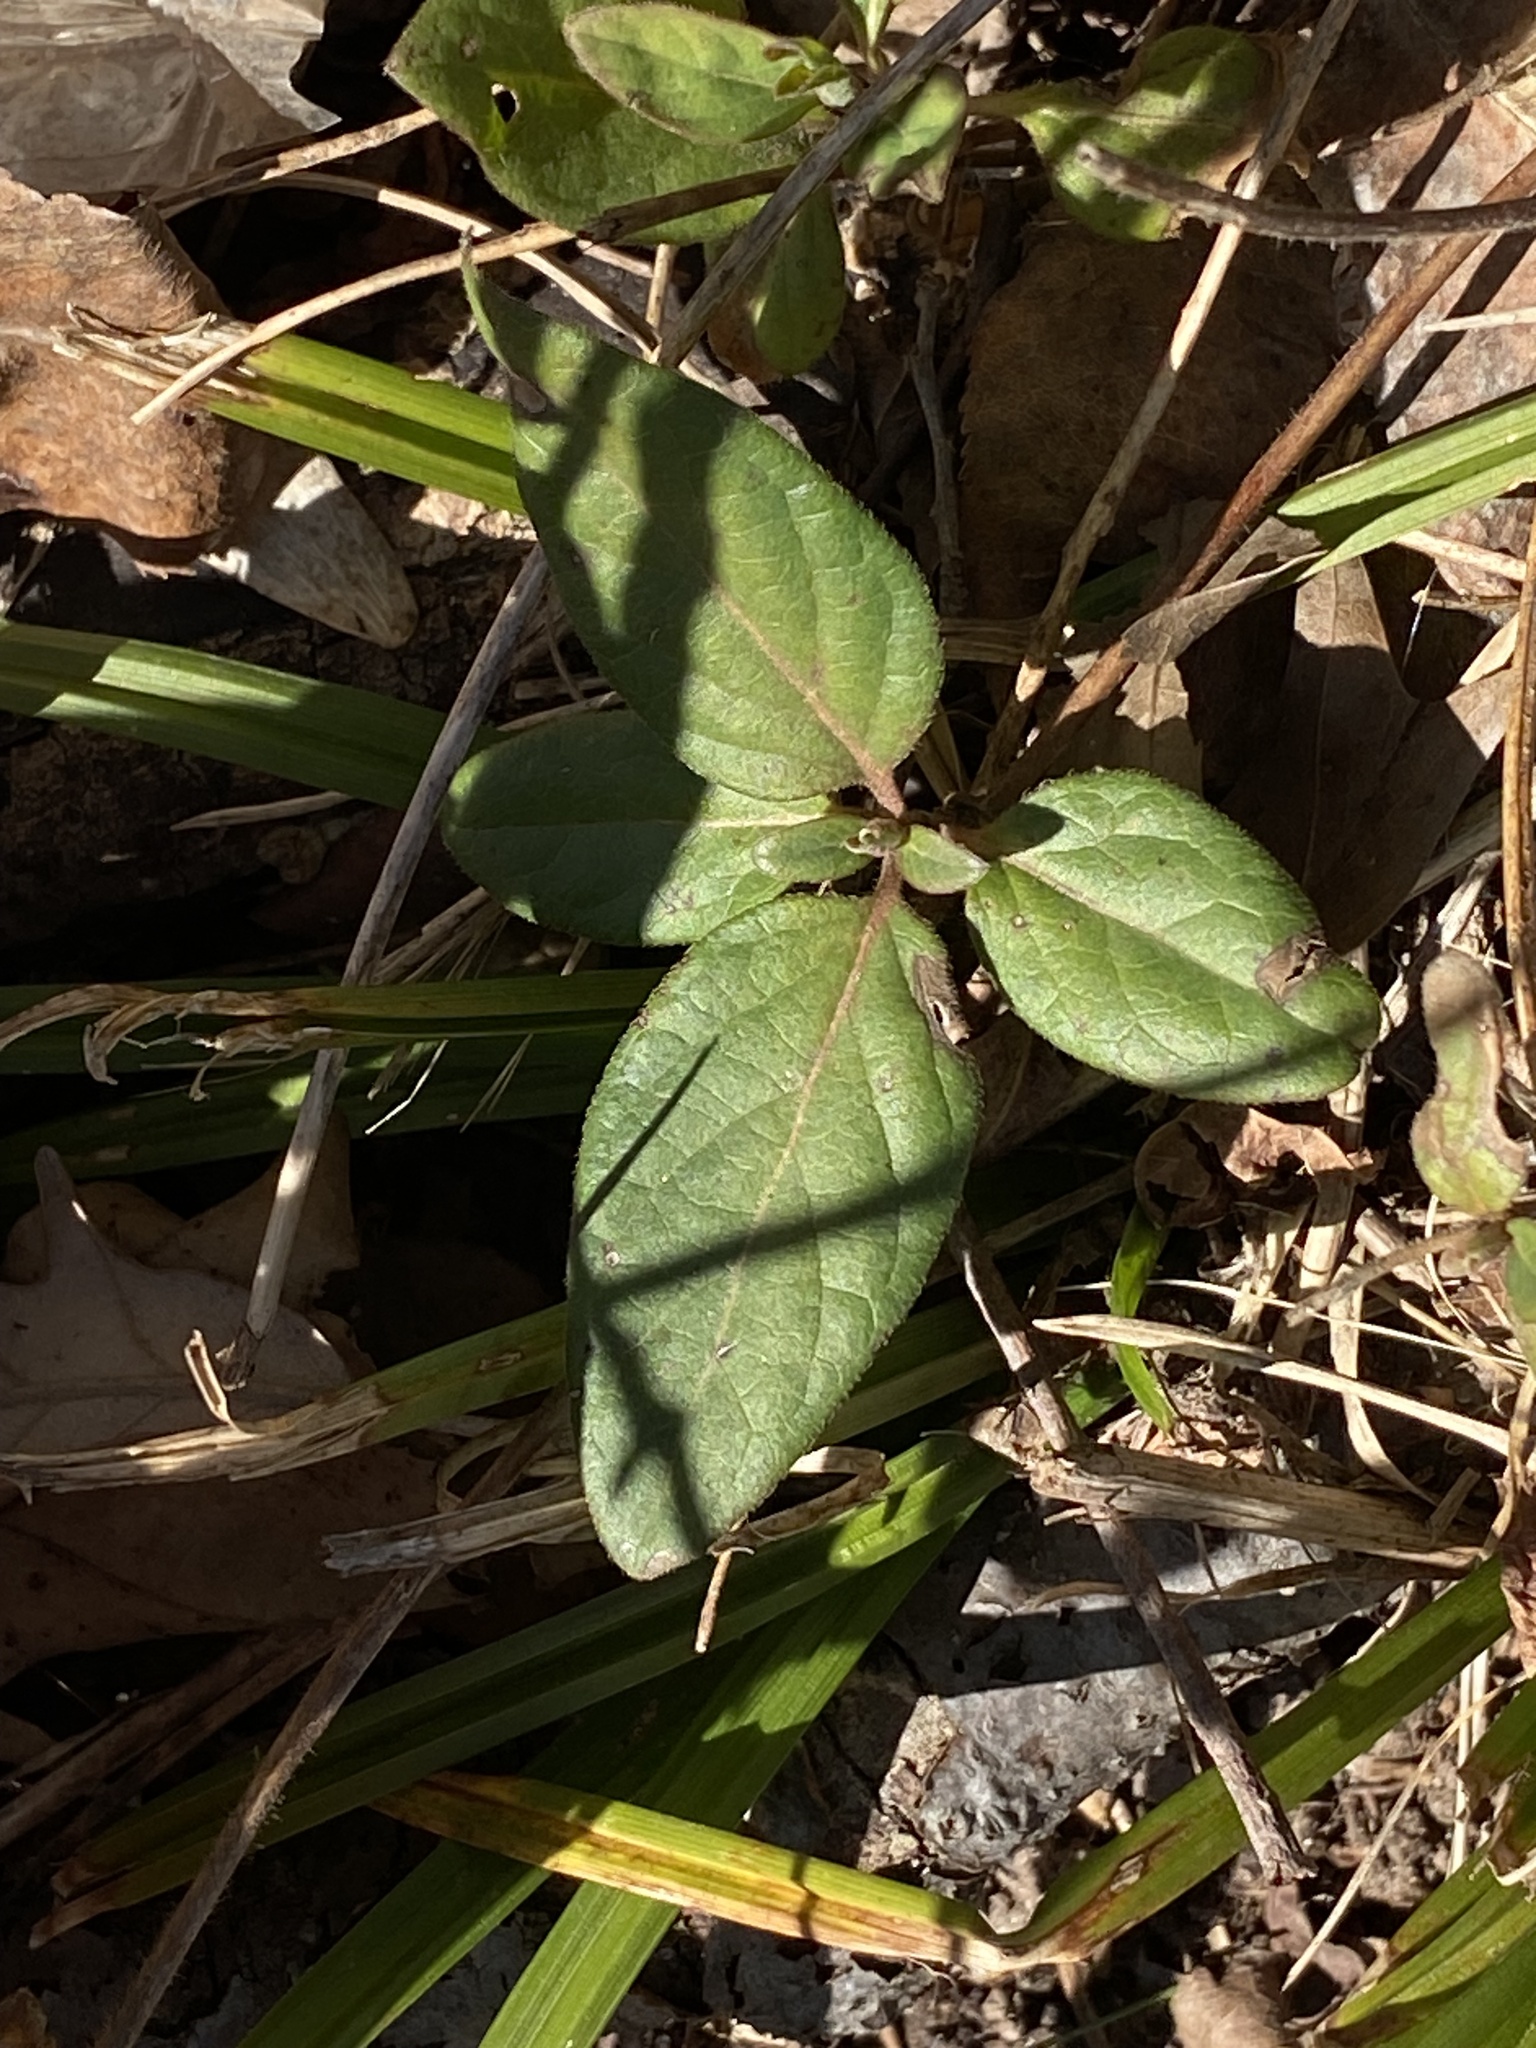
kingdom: Plantae
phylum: Tracheophyta
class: Magnoliopsida
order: Dipsacales
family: Caprifoliaceae
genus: Lonicera
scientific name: Lonicera japonica
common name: Japanese honeysuckle
